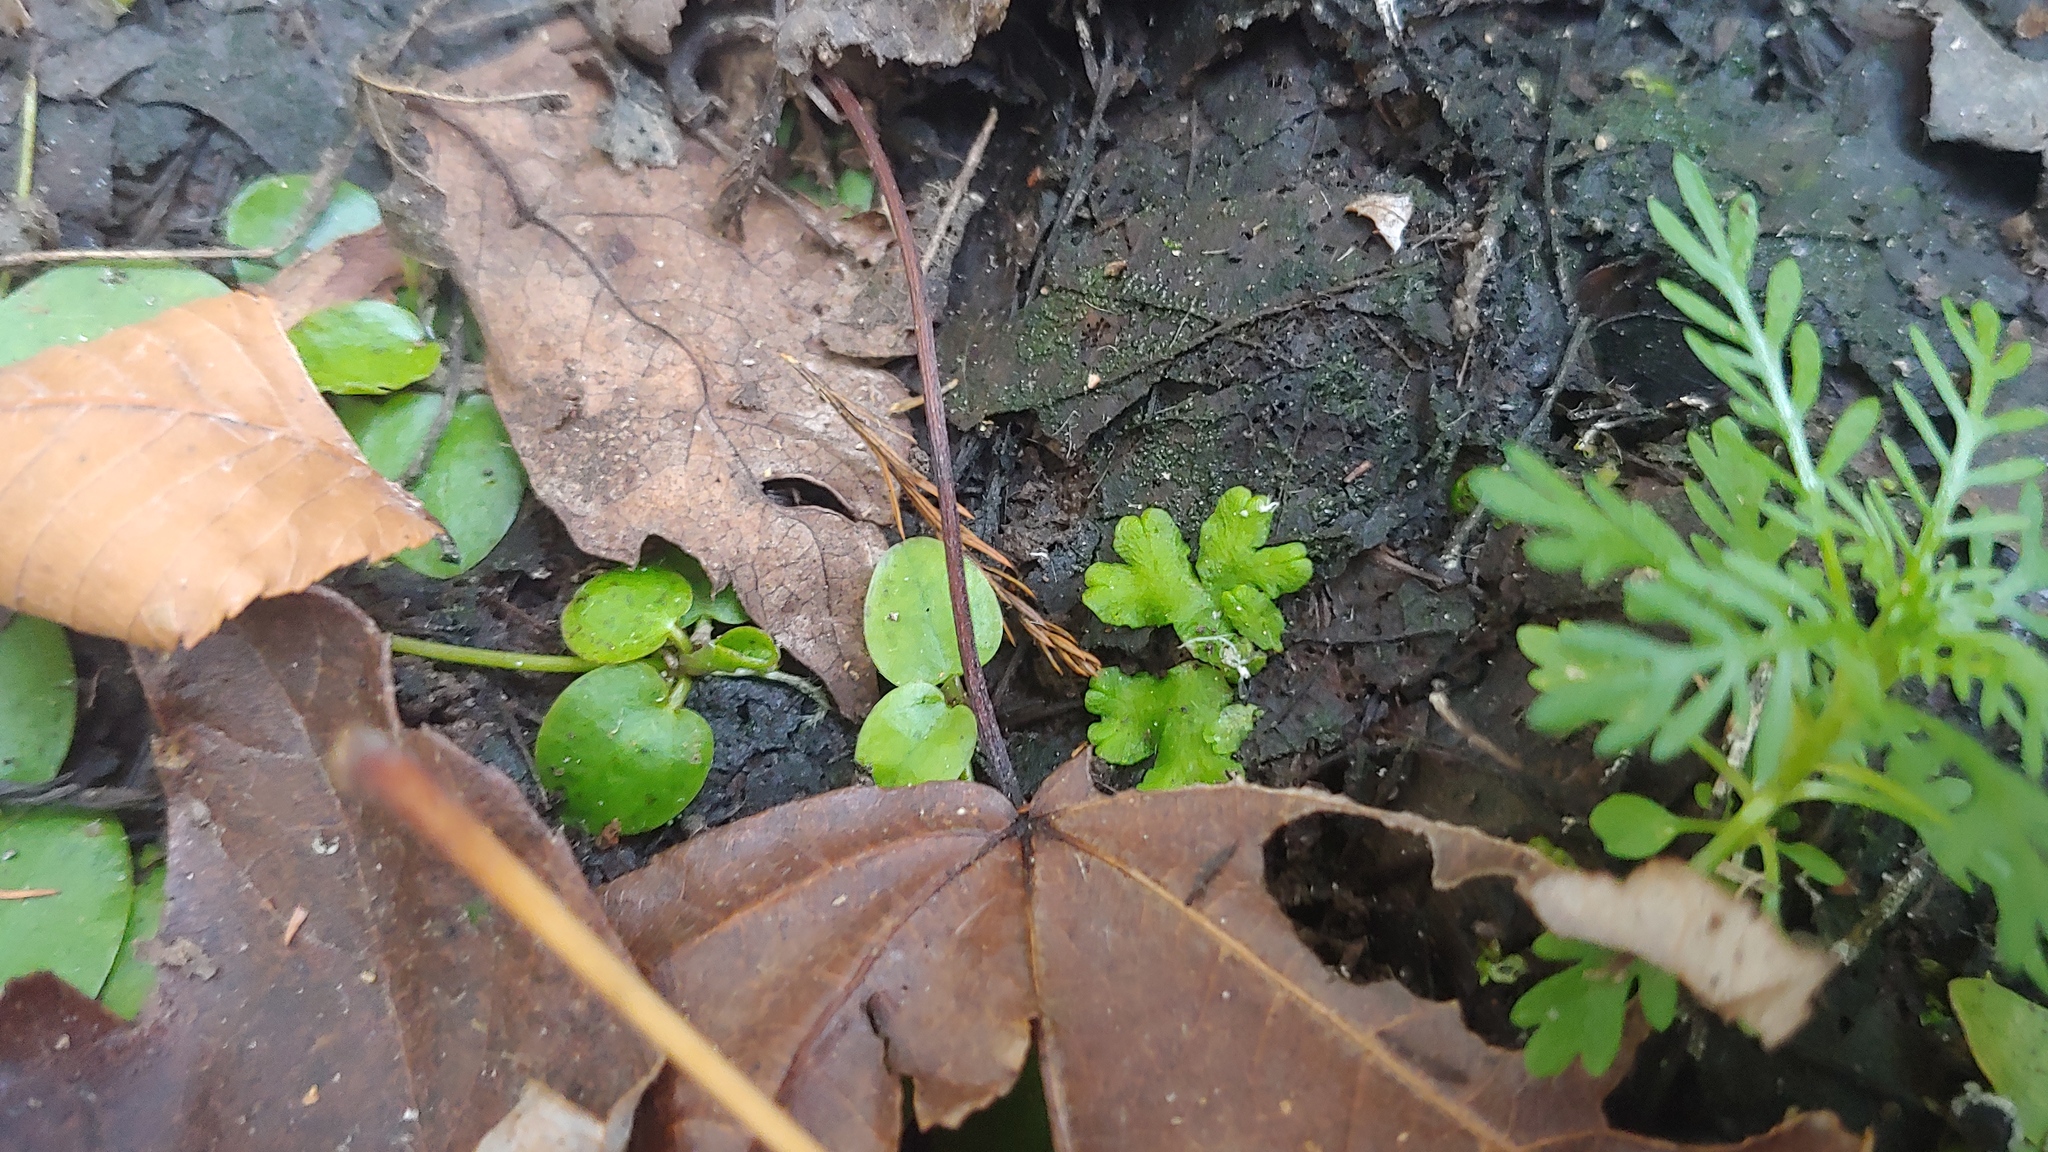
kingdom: Plantae
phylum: Marchantiophyta
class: Marchantiopsida
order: Marchantiales
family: Ricciaceae
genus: Ricciocarpos
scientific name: Ricciocarpos natans
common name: Purple-fringed liverwort
